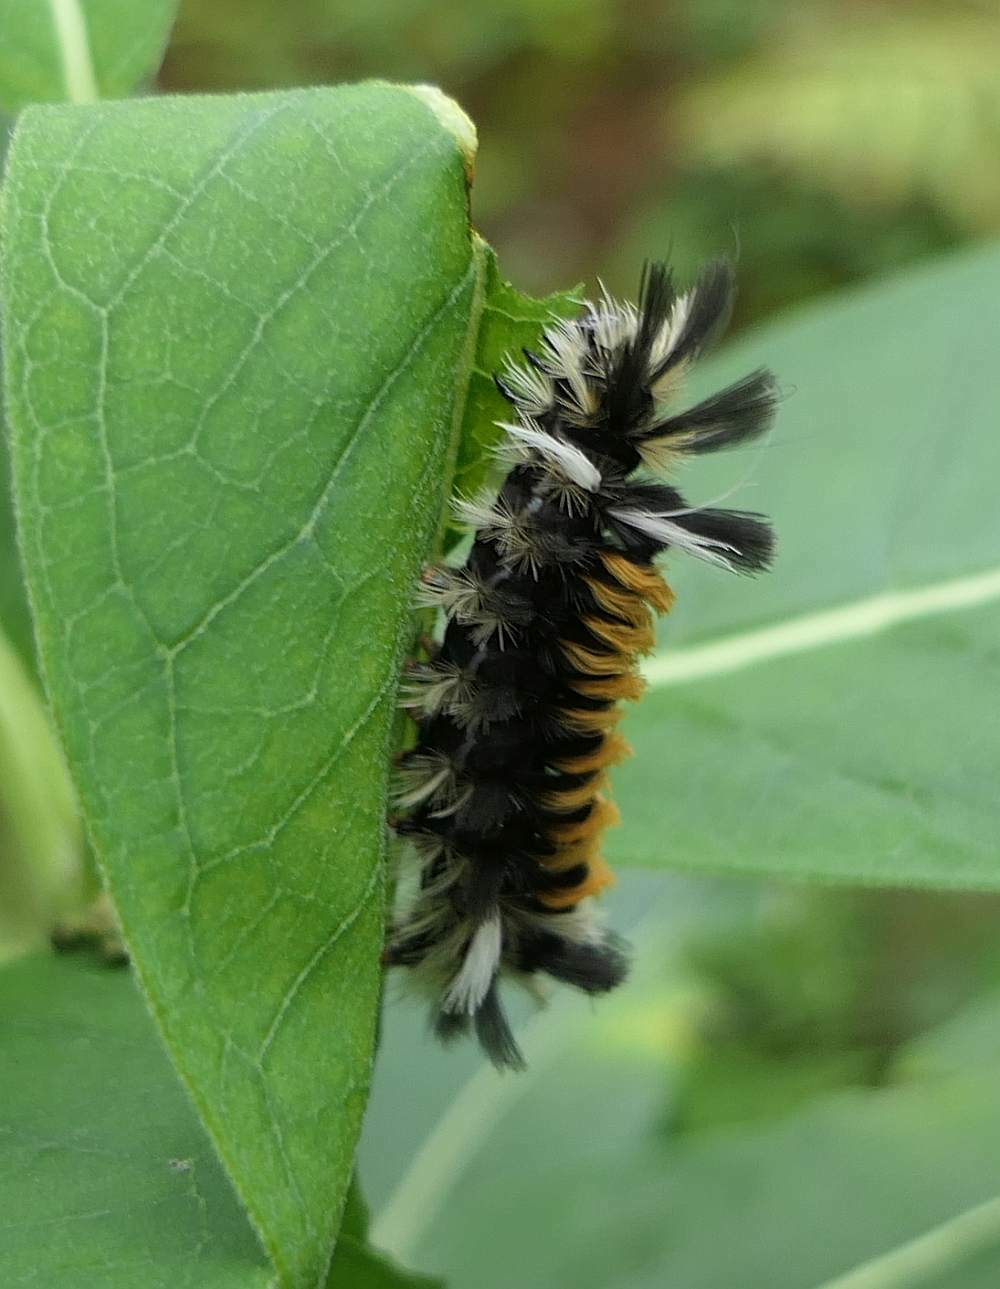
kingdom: Animalia
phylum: Arthropoda
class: Insecta
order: Lepidoptera
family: Erebidae
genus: Euchaetes
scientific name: Euchaetes egle
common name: Milkweed tussock moth
